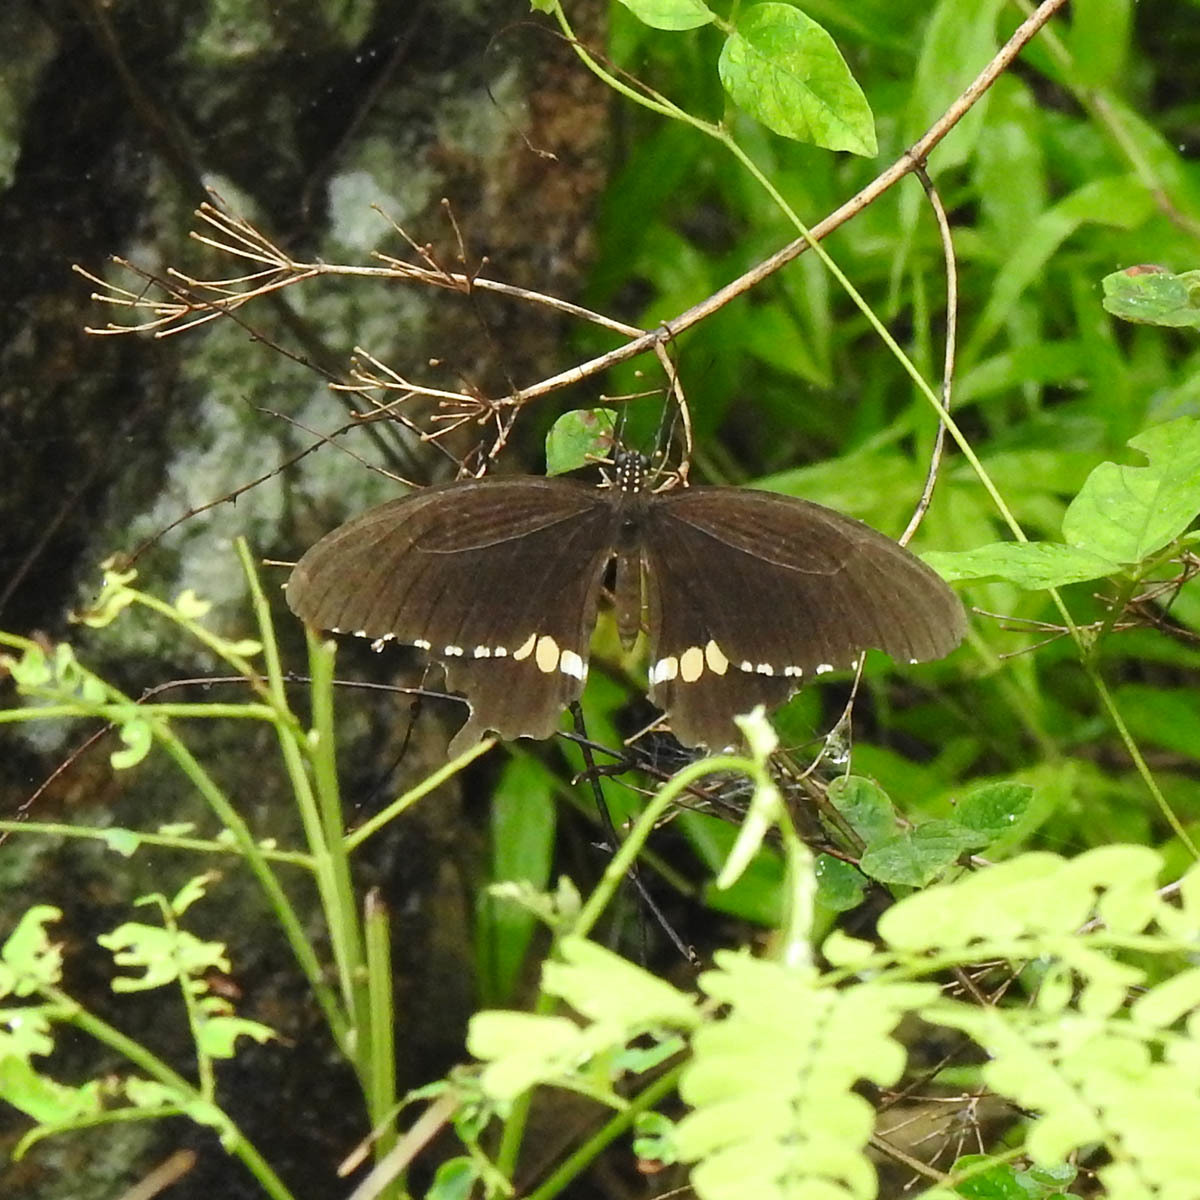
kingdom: Animalia
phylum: Arthropoda
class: Insecta
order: Lepidoptera
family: Papilionidae
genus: Papilio
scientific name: Papilio polytes
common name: Common mormon
